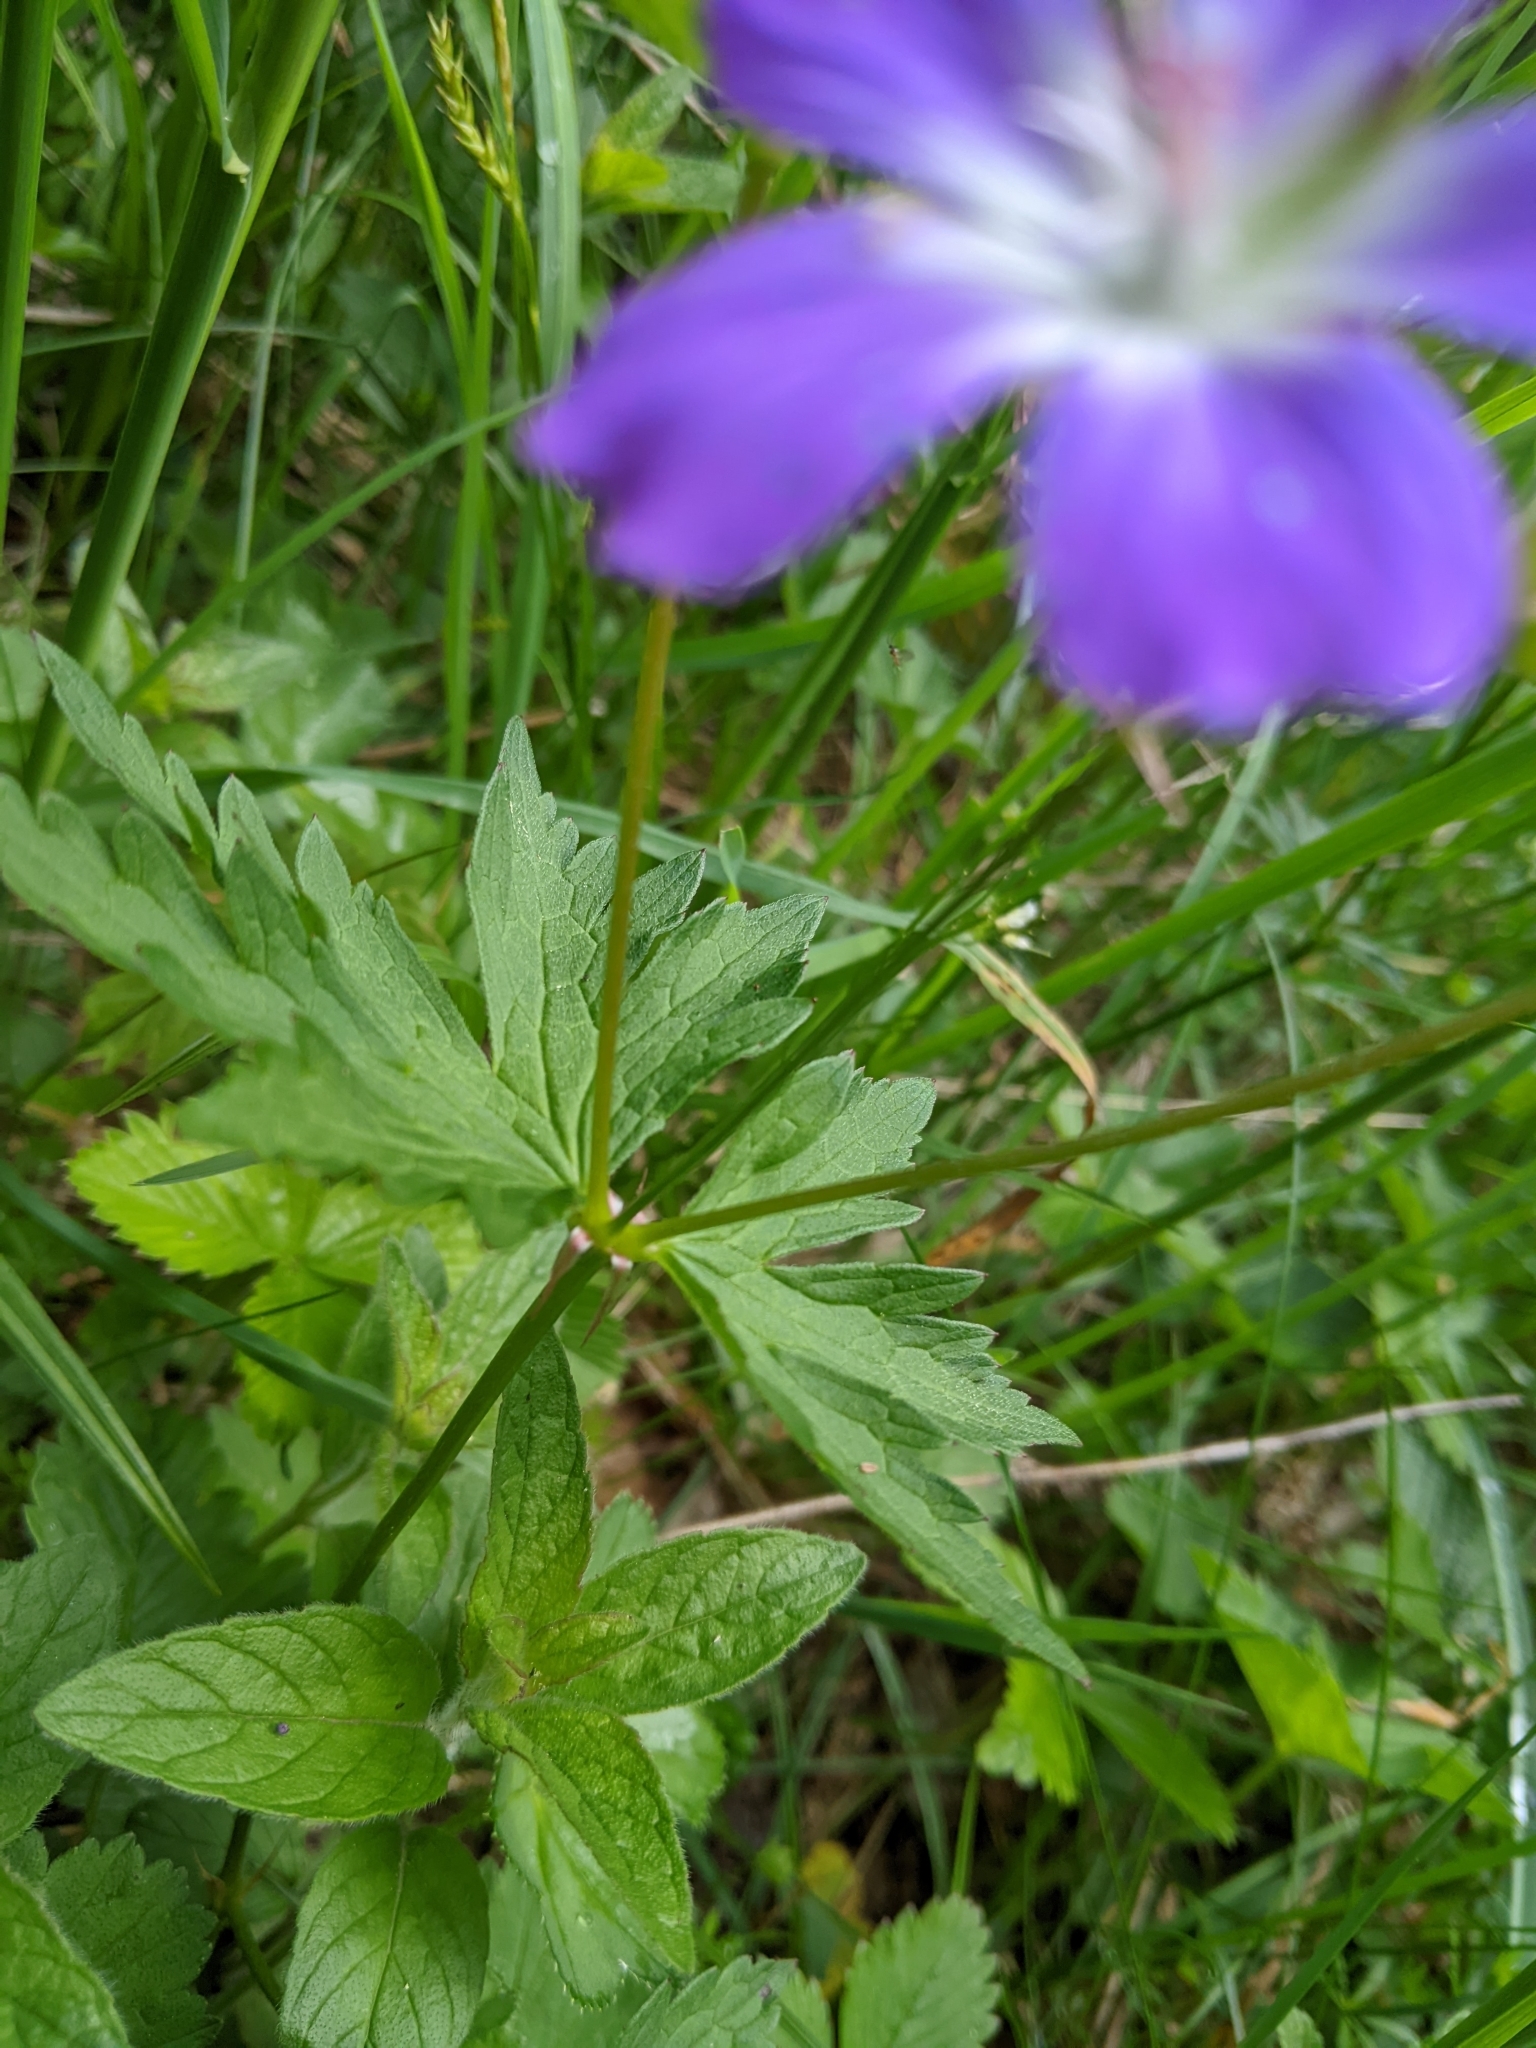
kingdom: Plantae
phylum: Tracheophyta
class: Magnoliopsida
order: Geraniales
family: Geraniaceae
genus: Geranium
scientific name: Geranium sylvaticum
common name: Wood crane's-bill
